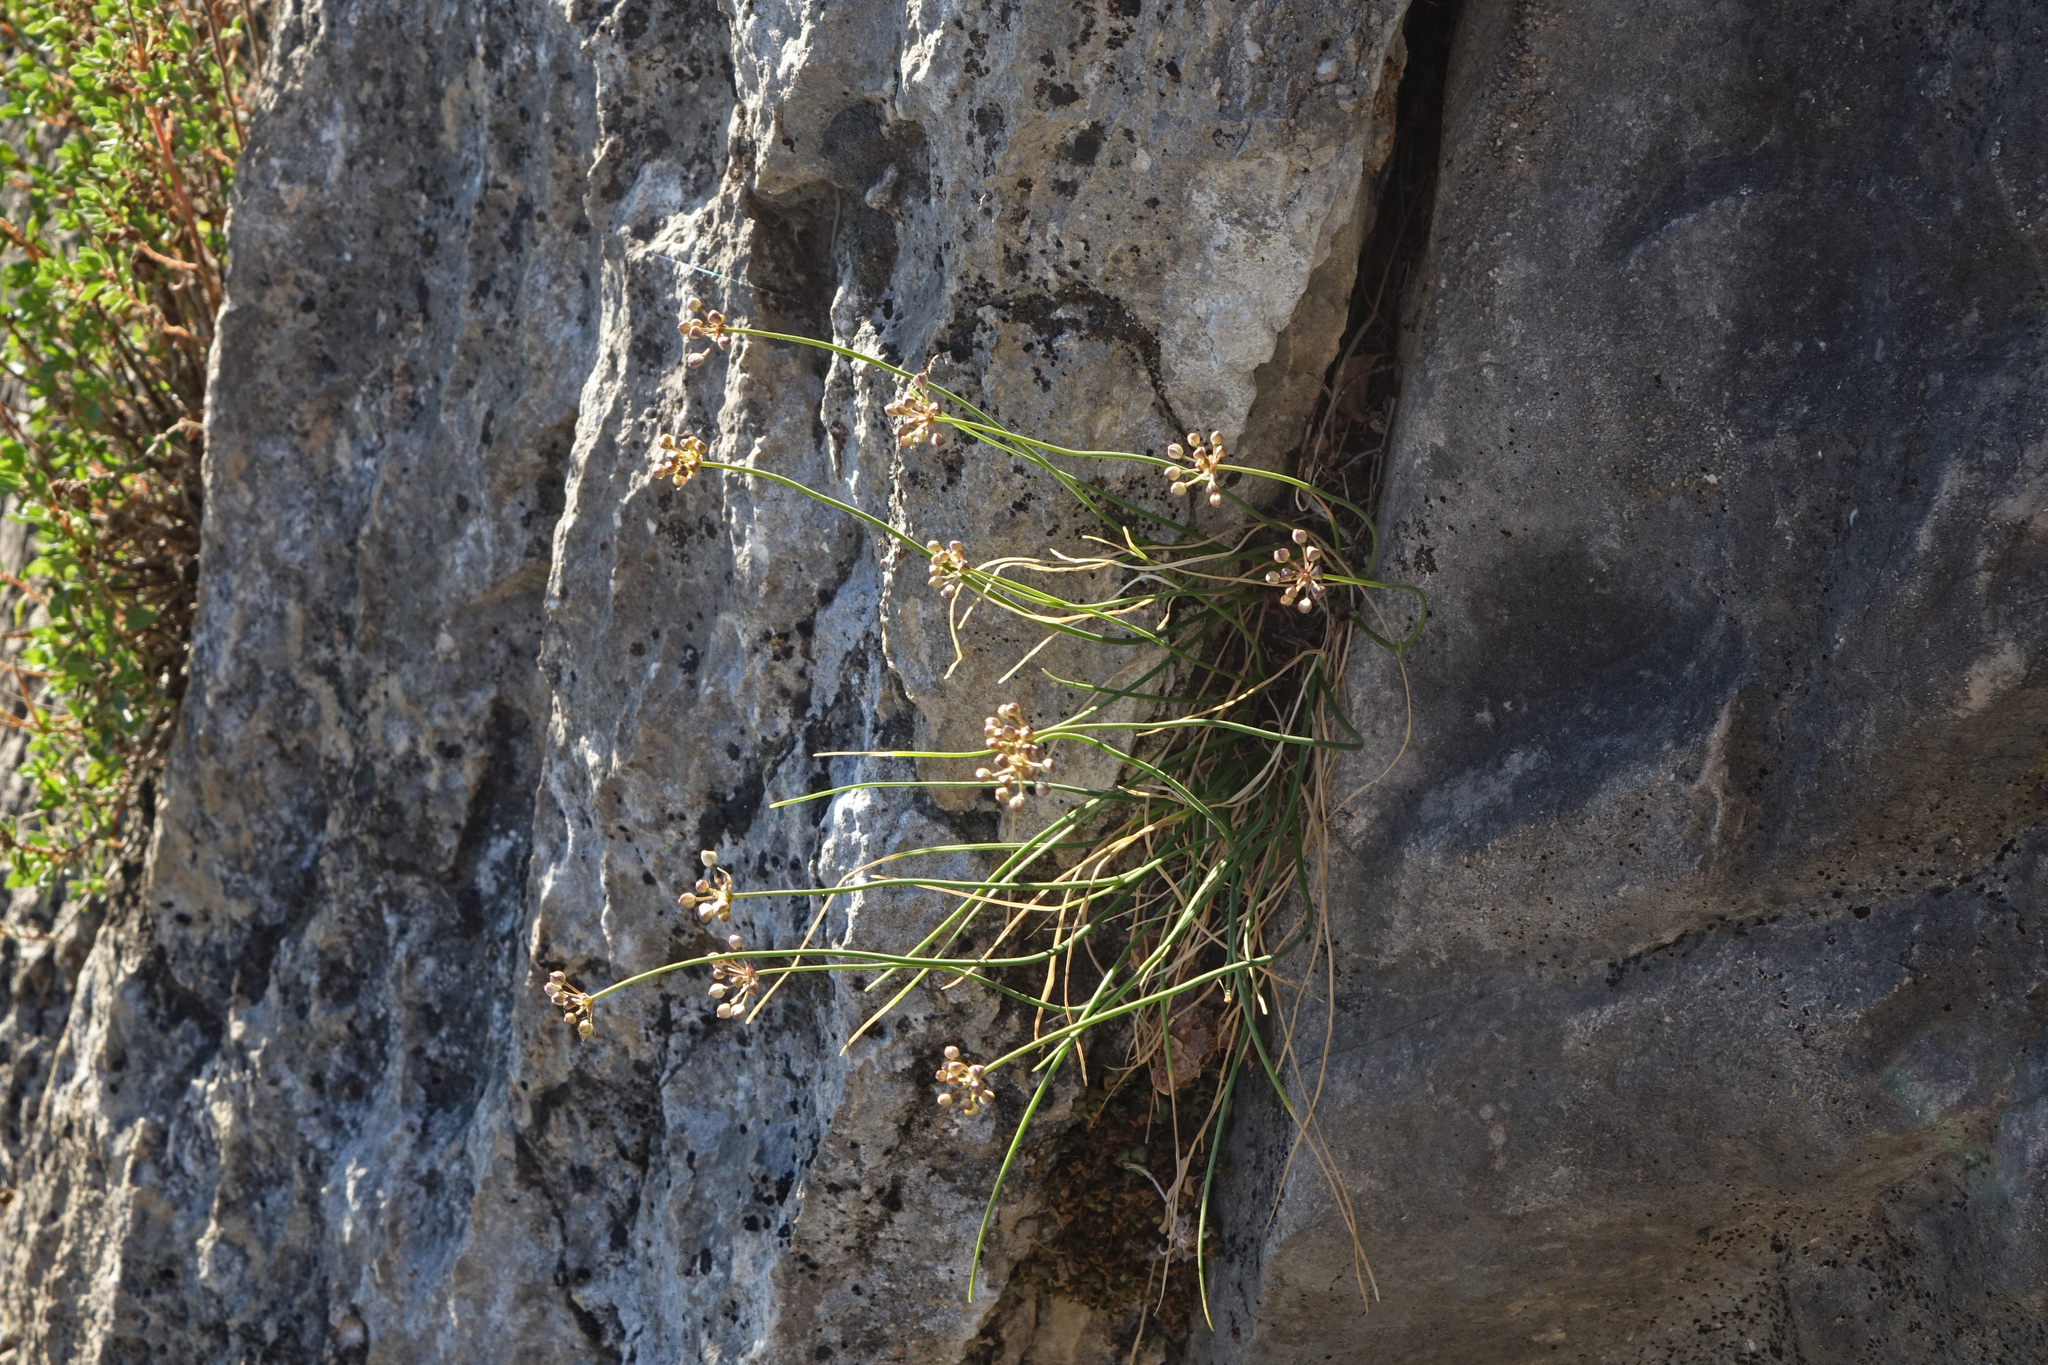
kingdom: Plantae
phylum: Tracheophyta
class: Liliopsida
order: Asparagales
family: Amaryllidaceae
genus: Allium
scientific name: Allium gunibicum
